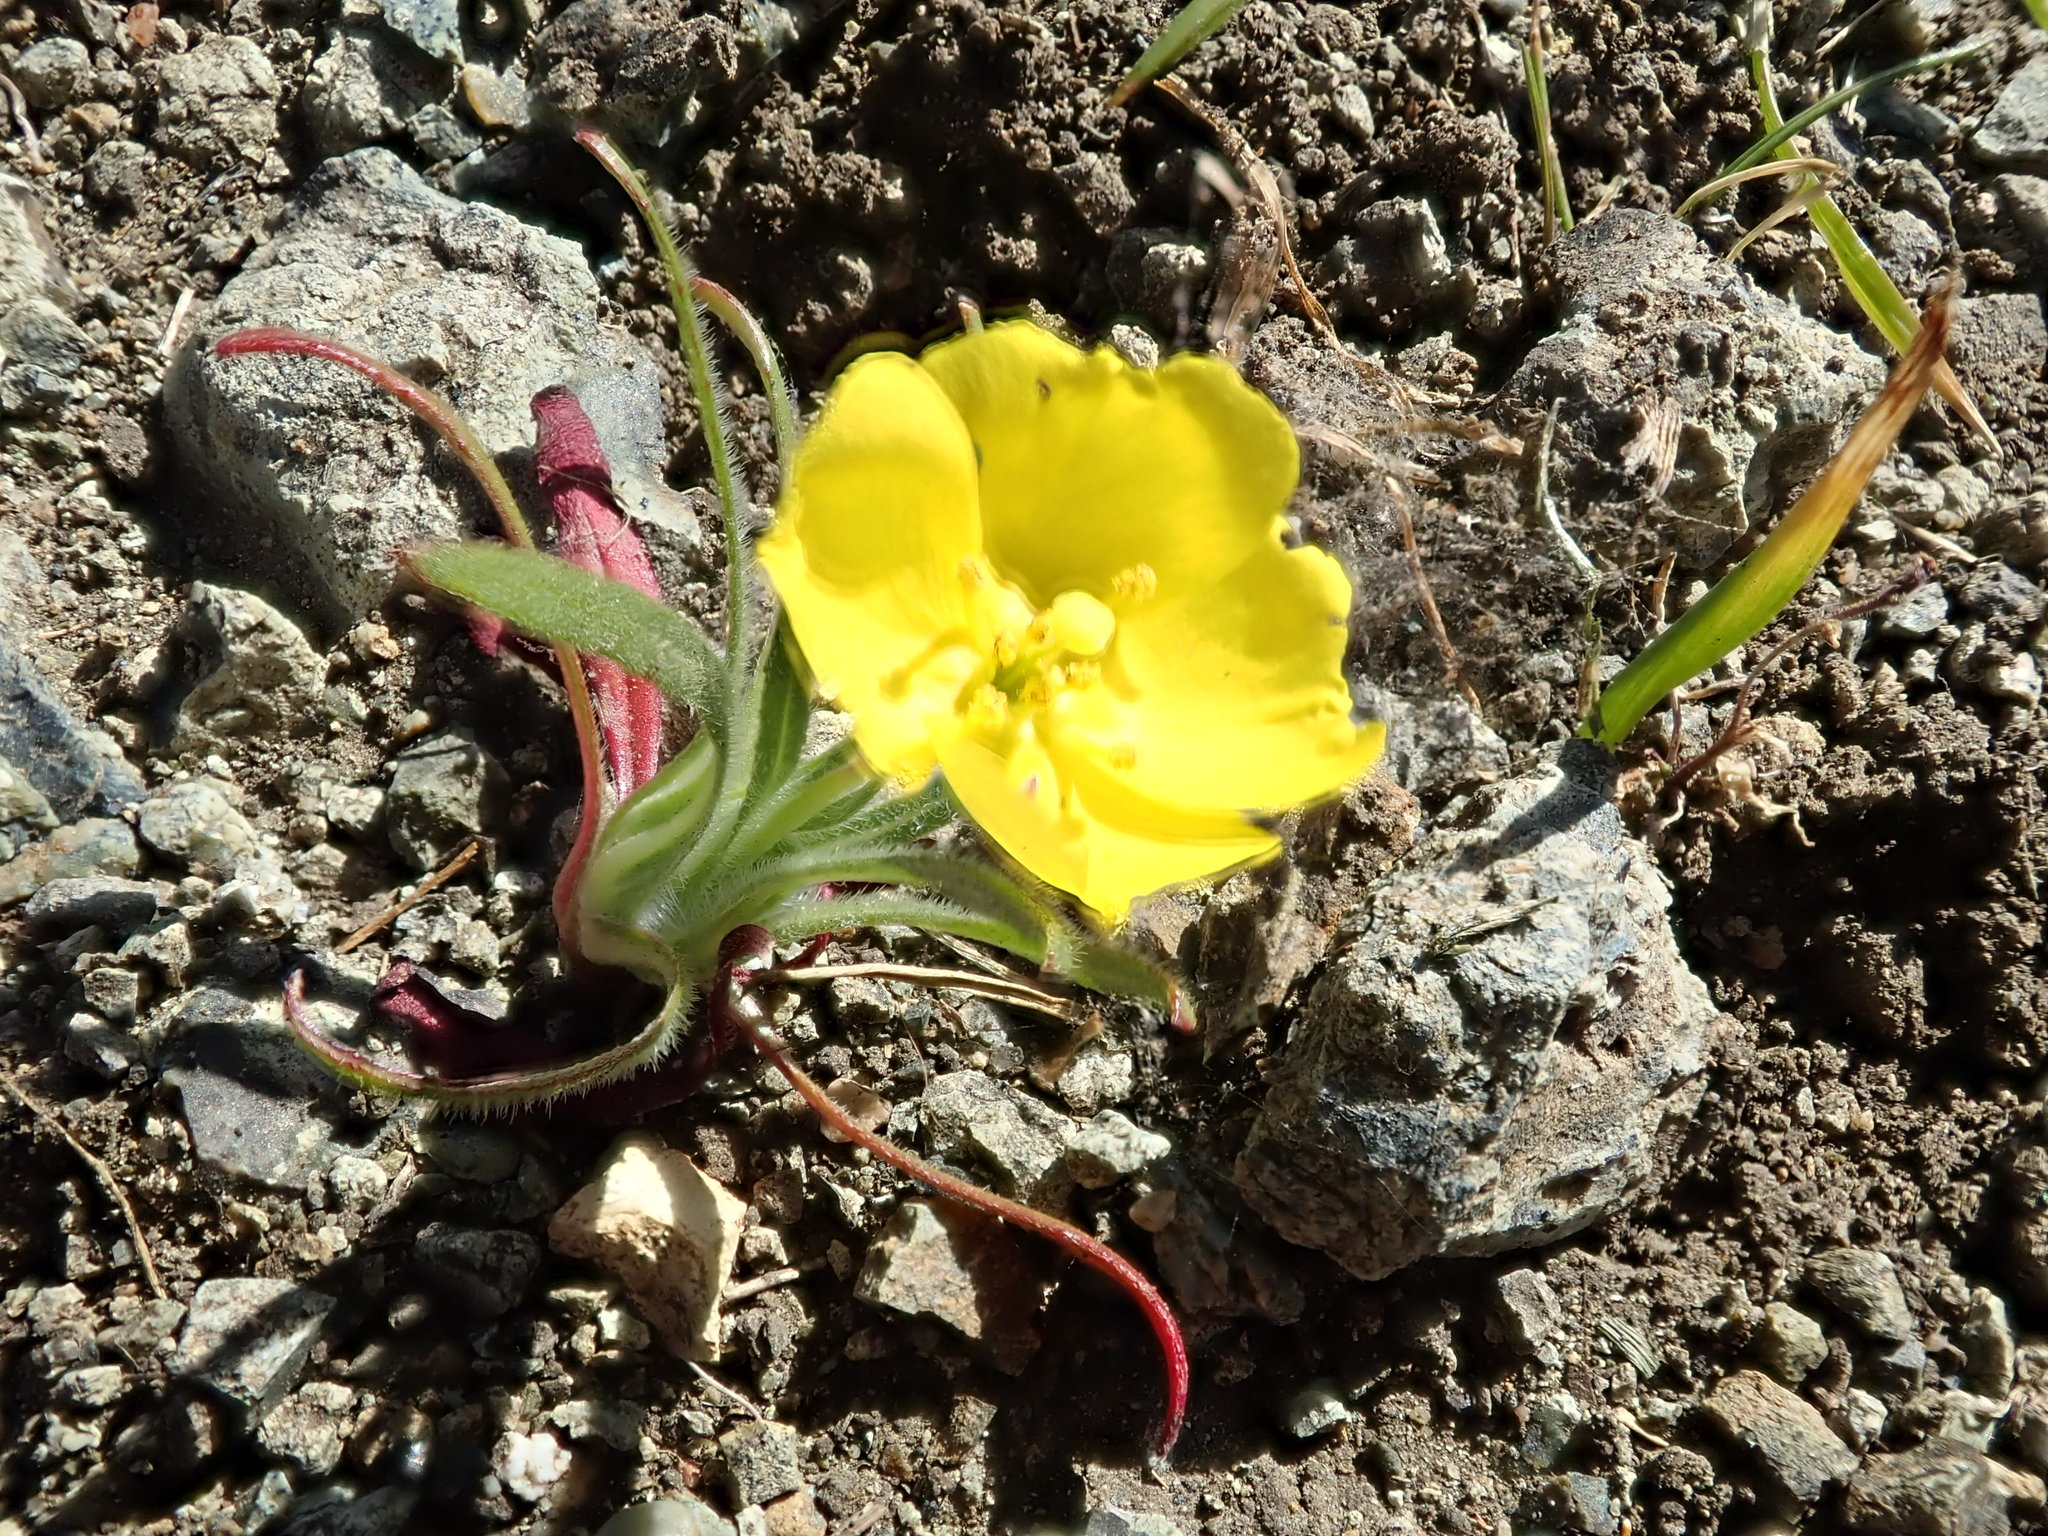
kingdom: Plantae
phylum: Tracheophyta
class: Magnoliopsida
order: Myrtales
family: Onagraceae
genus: Tetrapteron
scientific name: Tetrapteron graciliflorum
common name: Hill suncup
